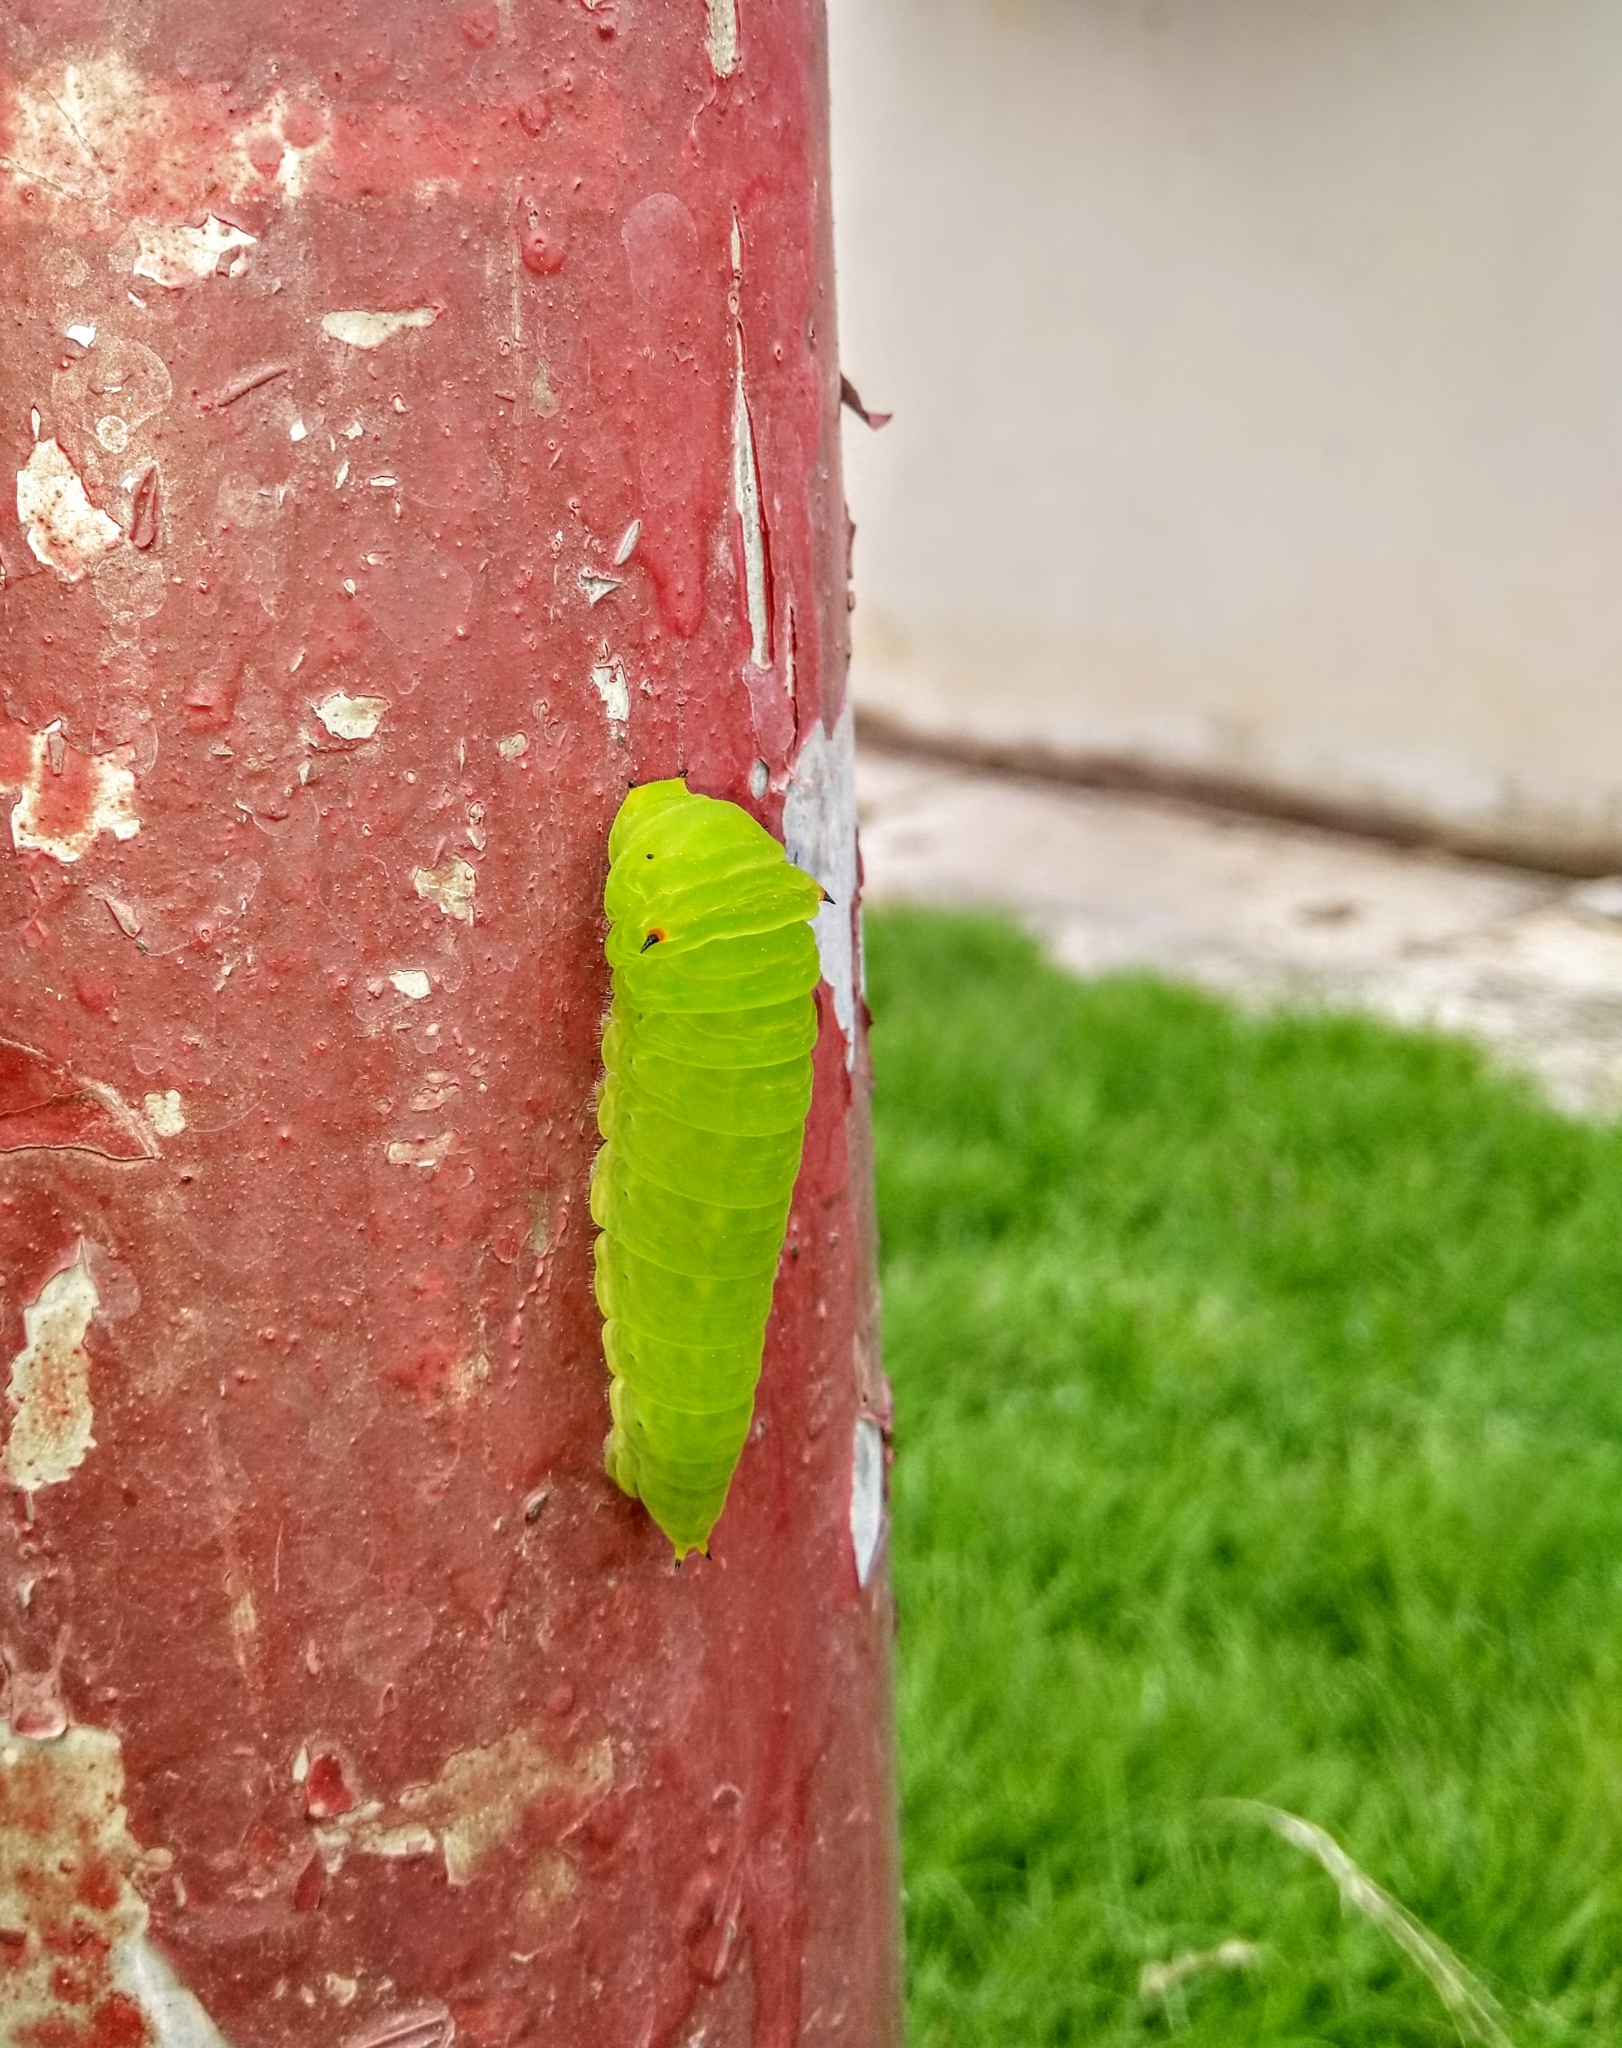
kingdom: Animalia
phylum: Arthropoda
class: Insecta
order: Lepidoptera
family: Papilionidae
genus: Graphium
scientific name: Graphium agamemnon
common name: Tailed jay
